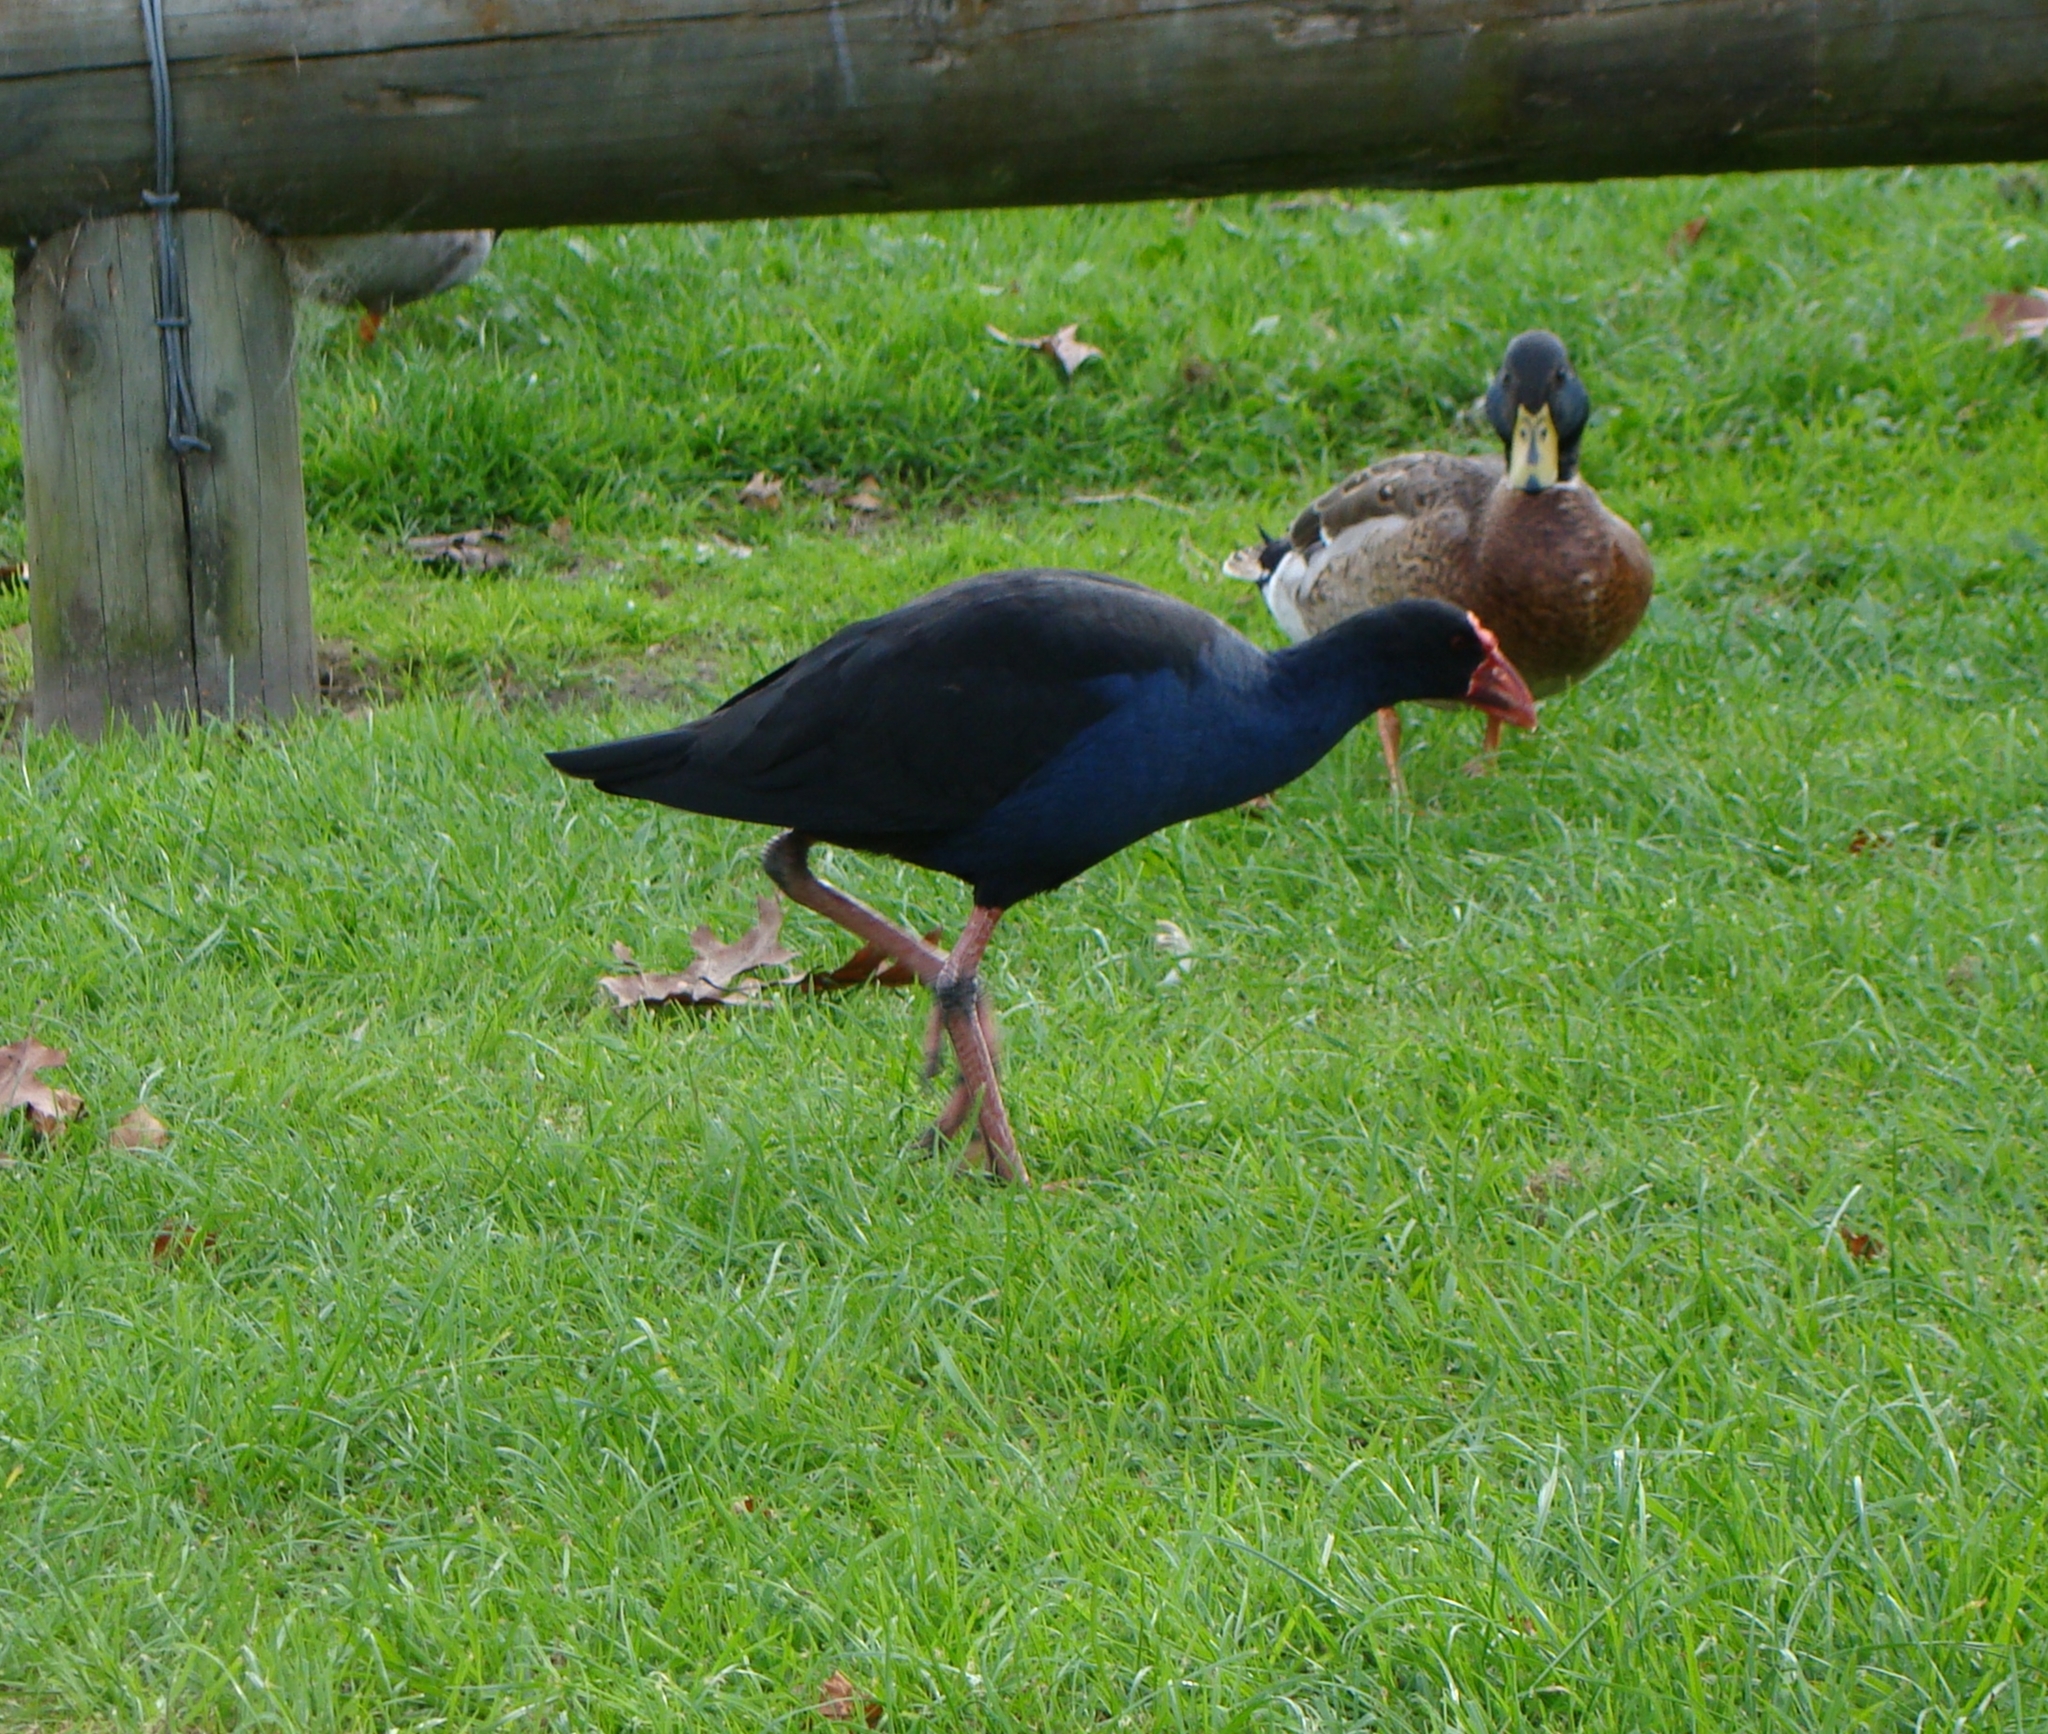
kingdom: Animalia
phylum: Chordata
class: Aves
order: Gruiformes
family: Rallidae
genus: Porphyrio
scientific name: Porphyrio melanotus
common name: Australasian swamphen
